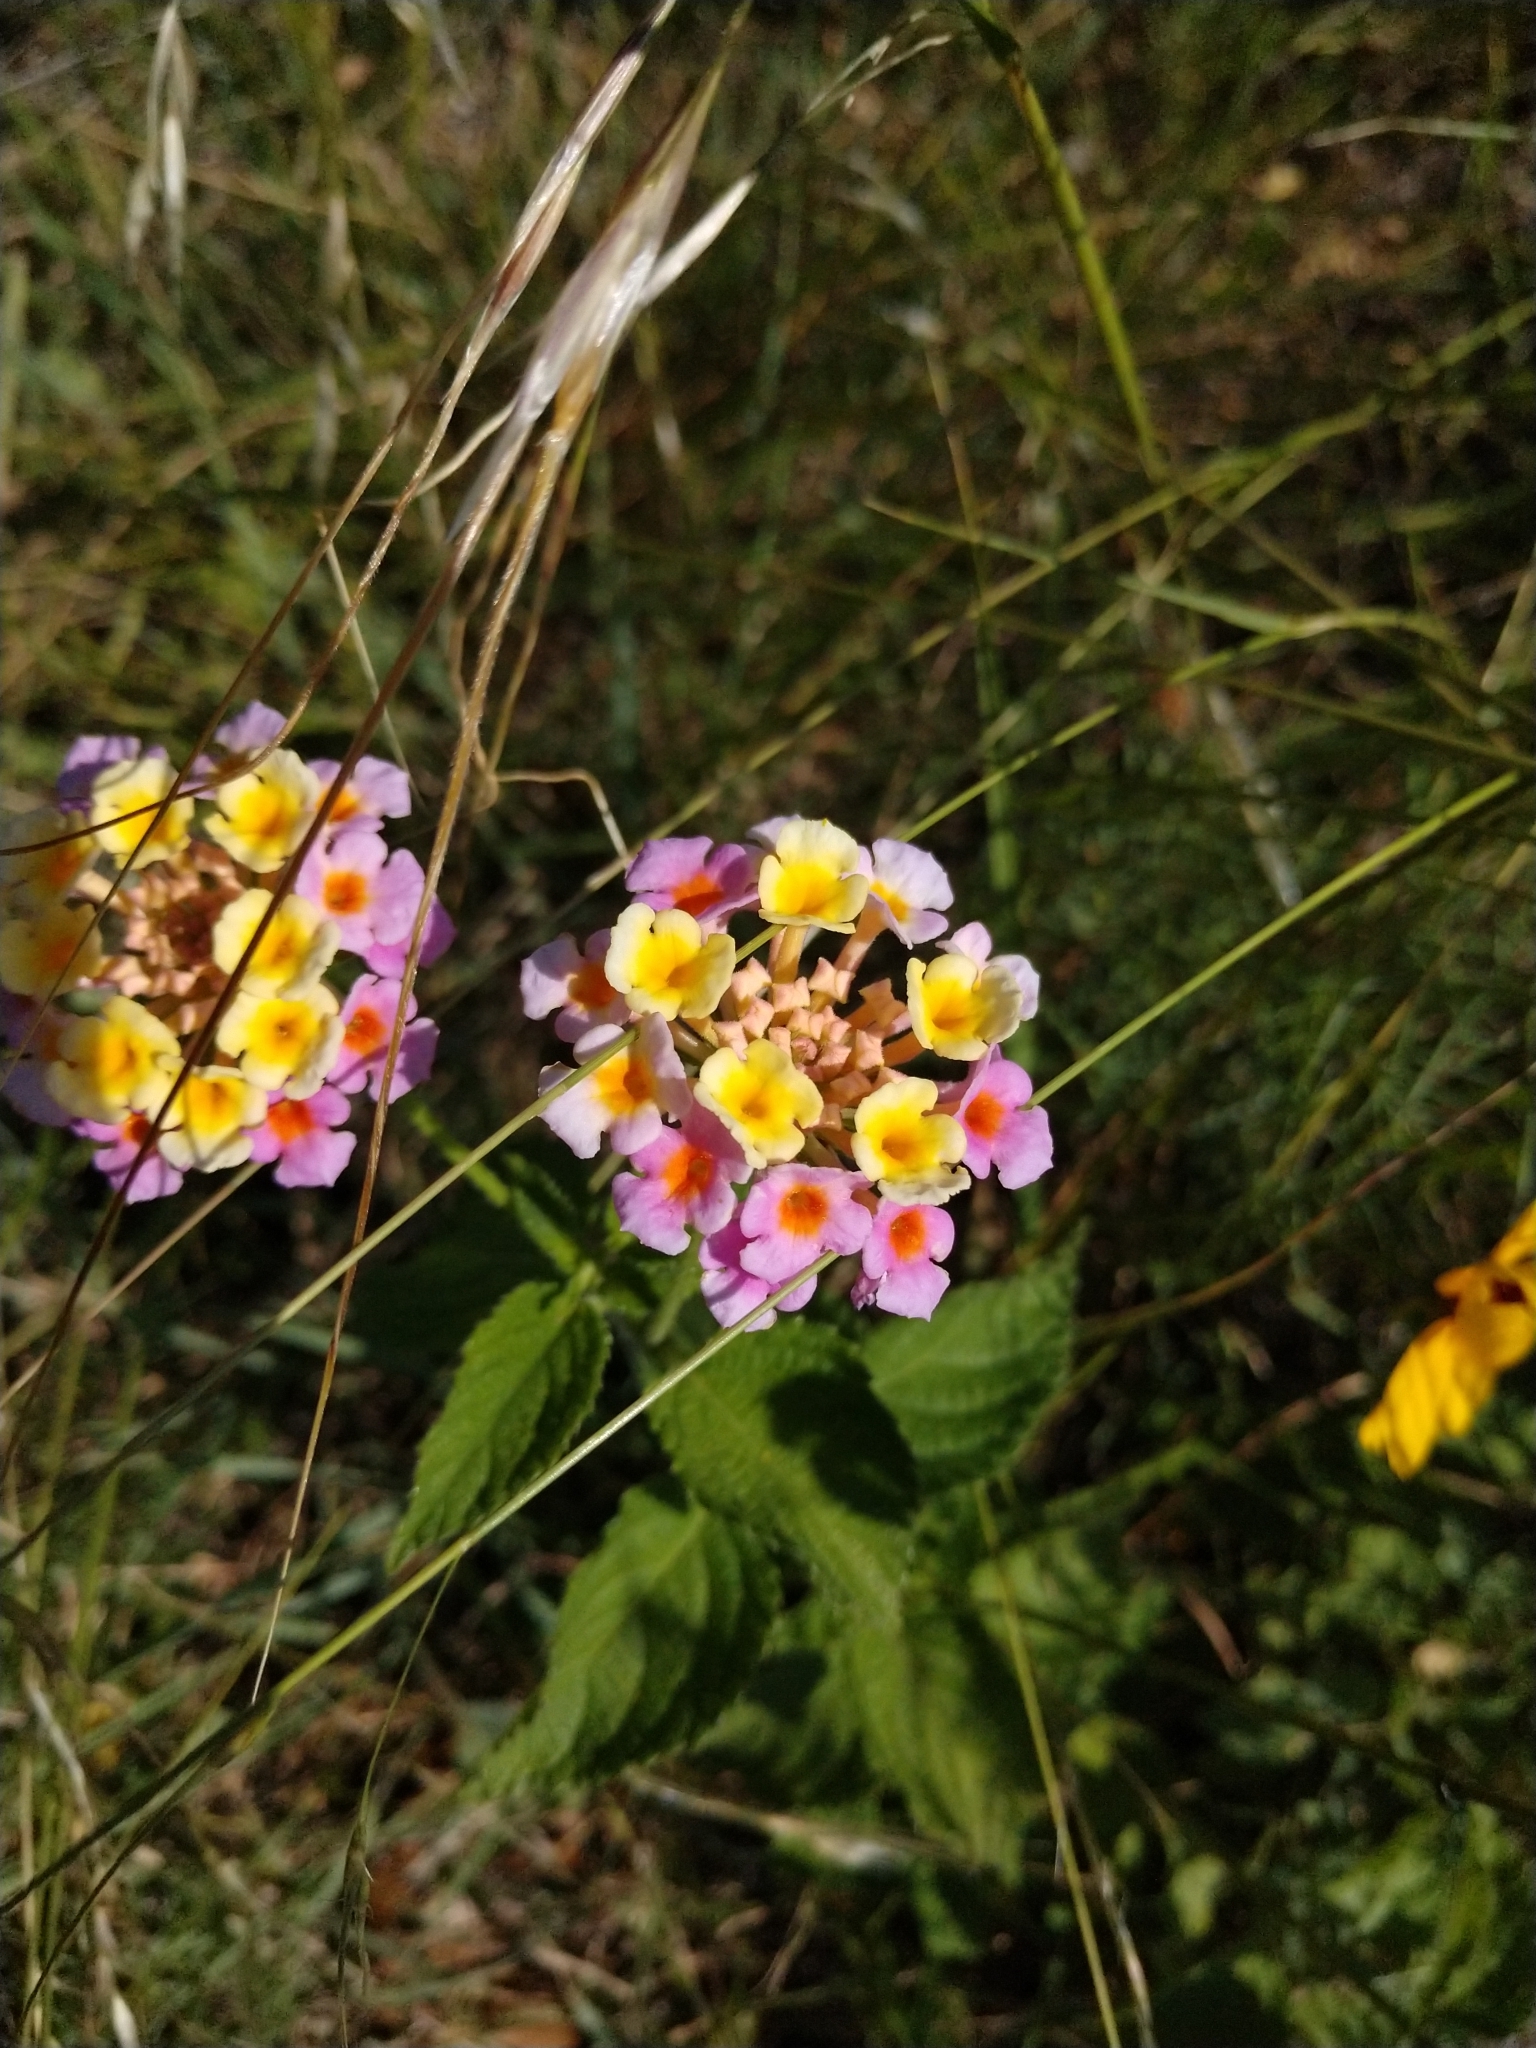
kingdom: Plantae
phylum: Tracheophyta
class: Magnoliopsida
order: Lamiales
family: Verbenaceae
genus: Lantana
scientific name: Lantana strigocamara
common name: Lantana
